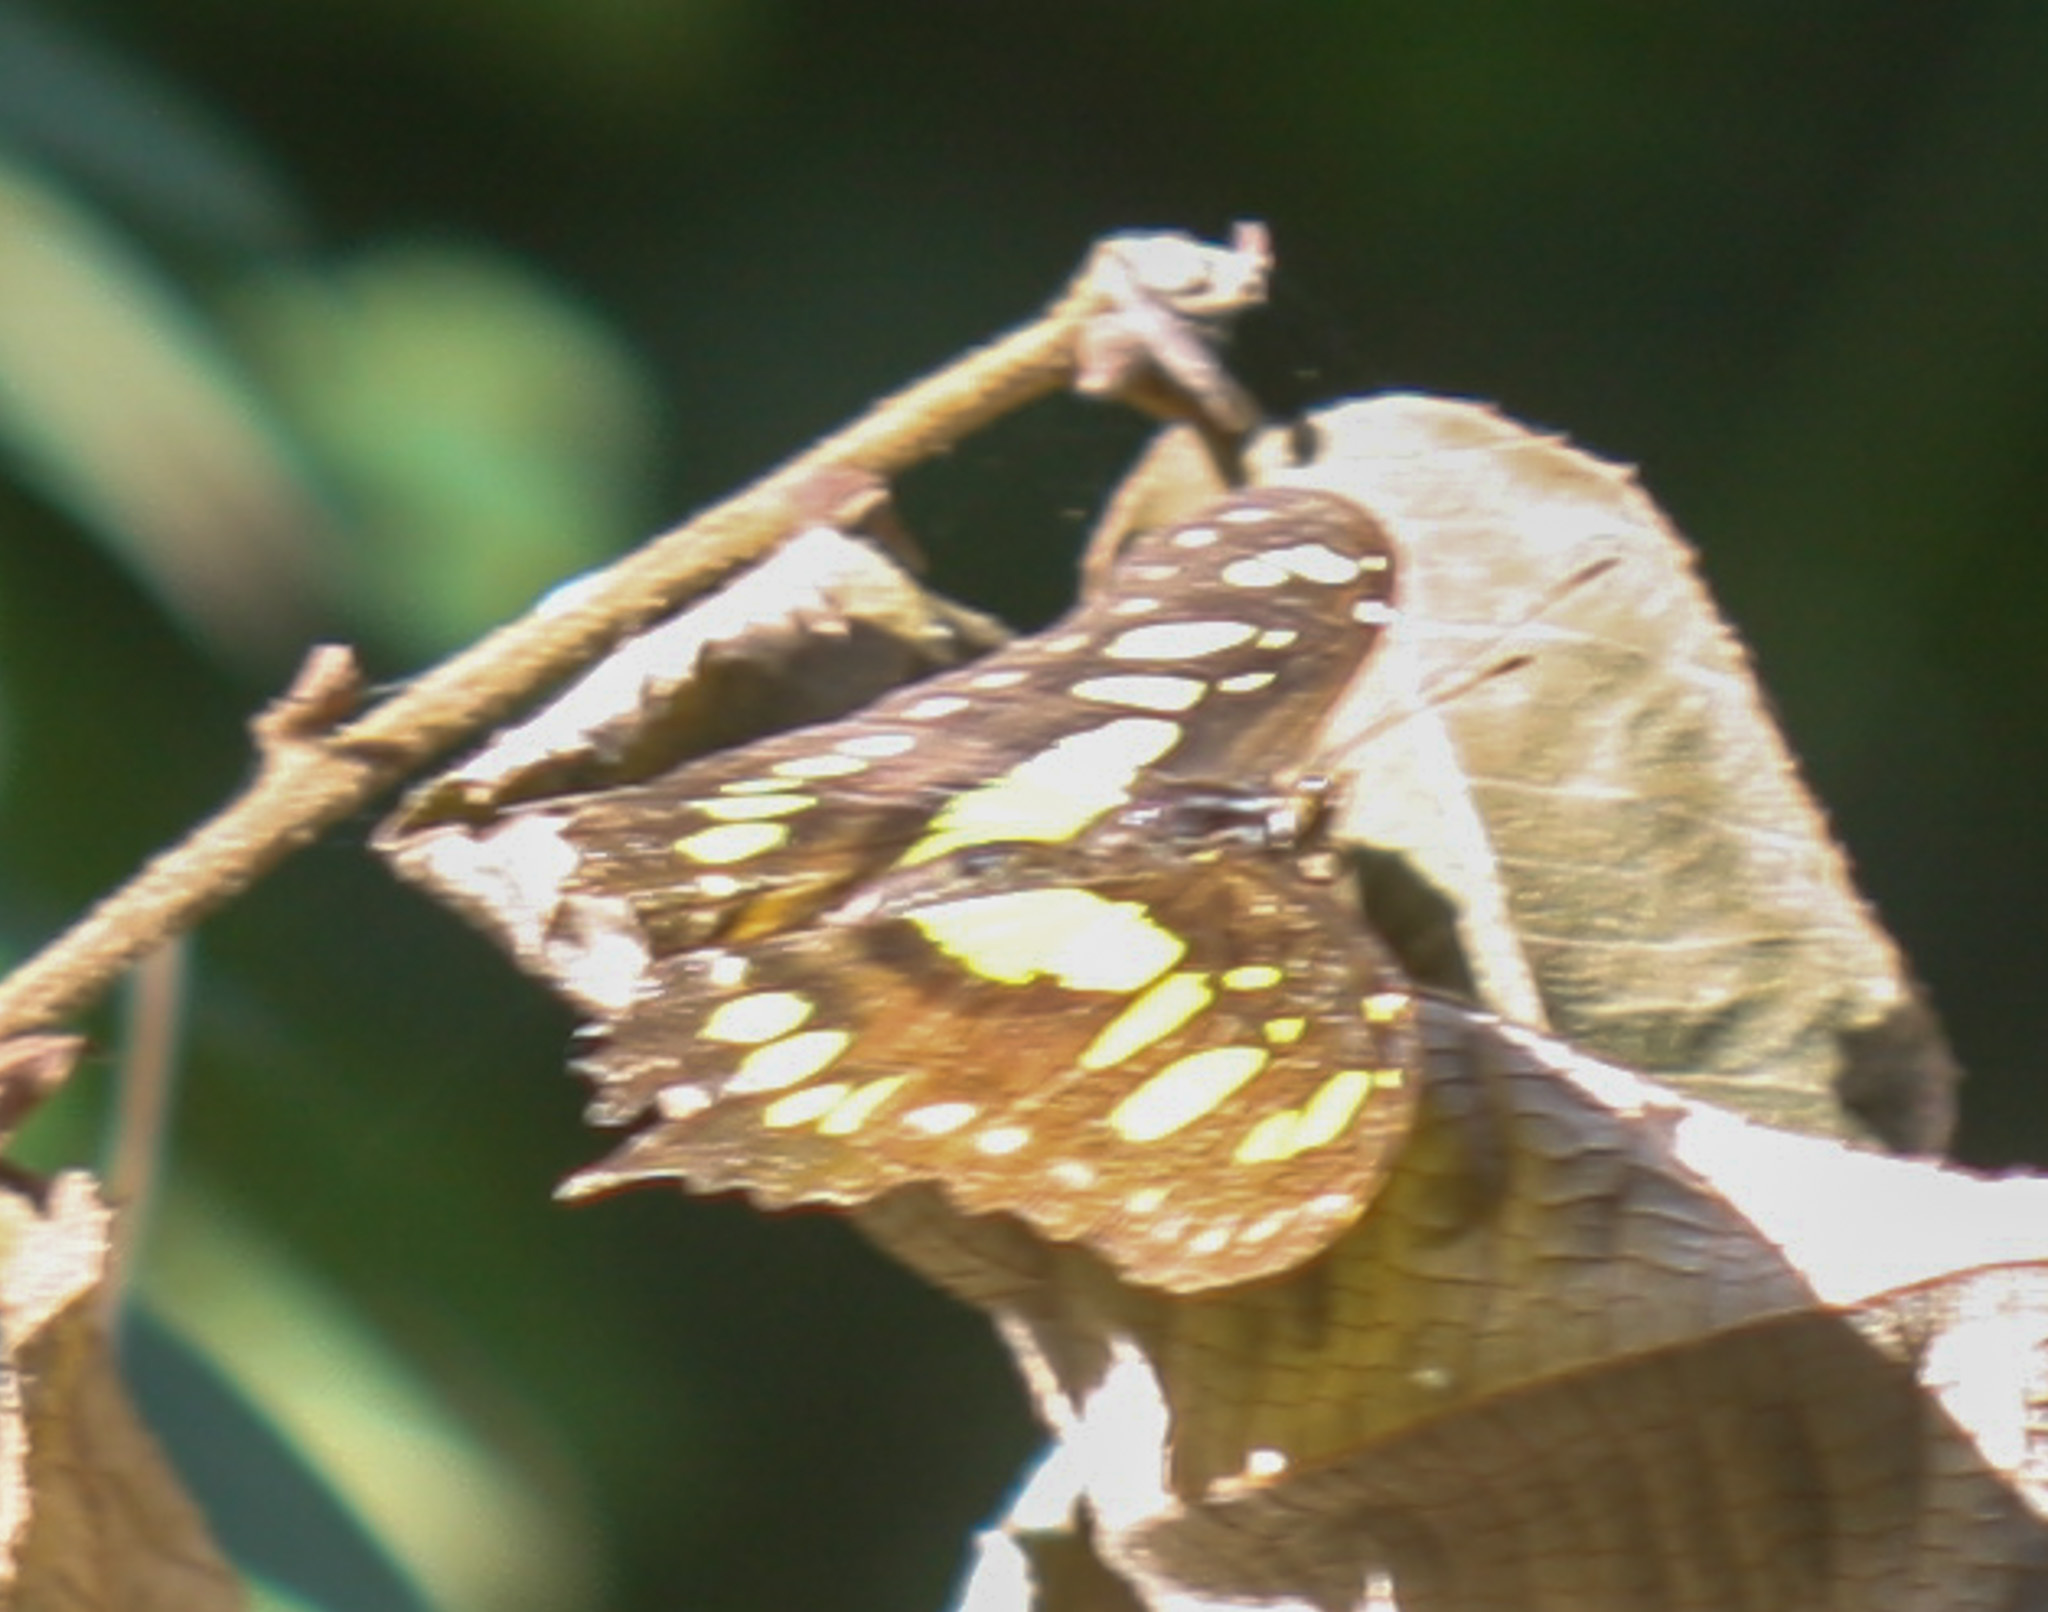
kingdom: Animalia
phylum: Arthropoda
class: Insecta
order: Lepidoptera
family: Nymphalidae
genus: Siproeta
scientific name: Siproeta stelenes
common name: Malachite
